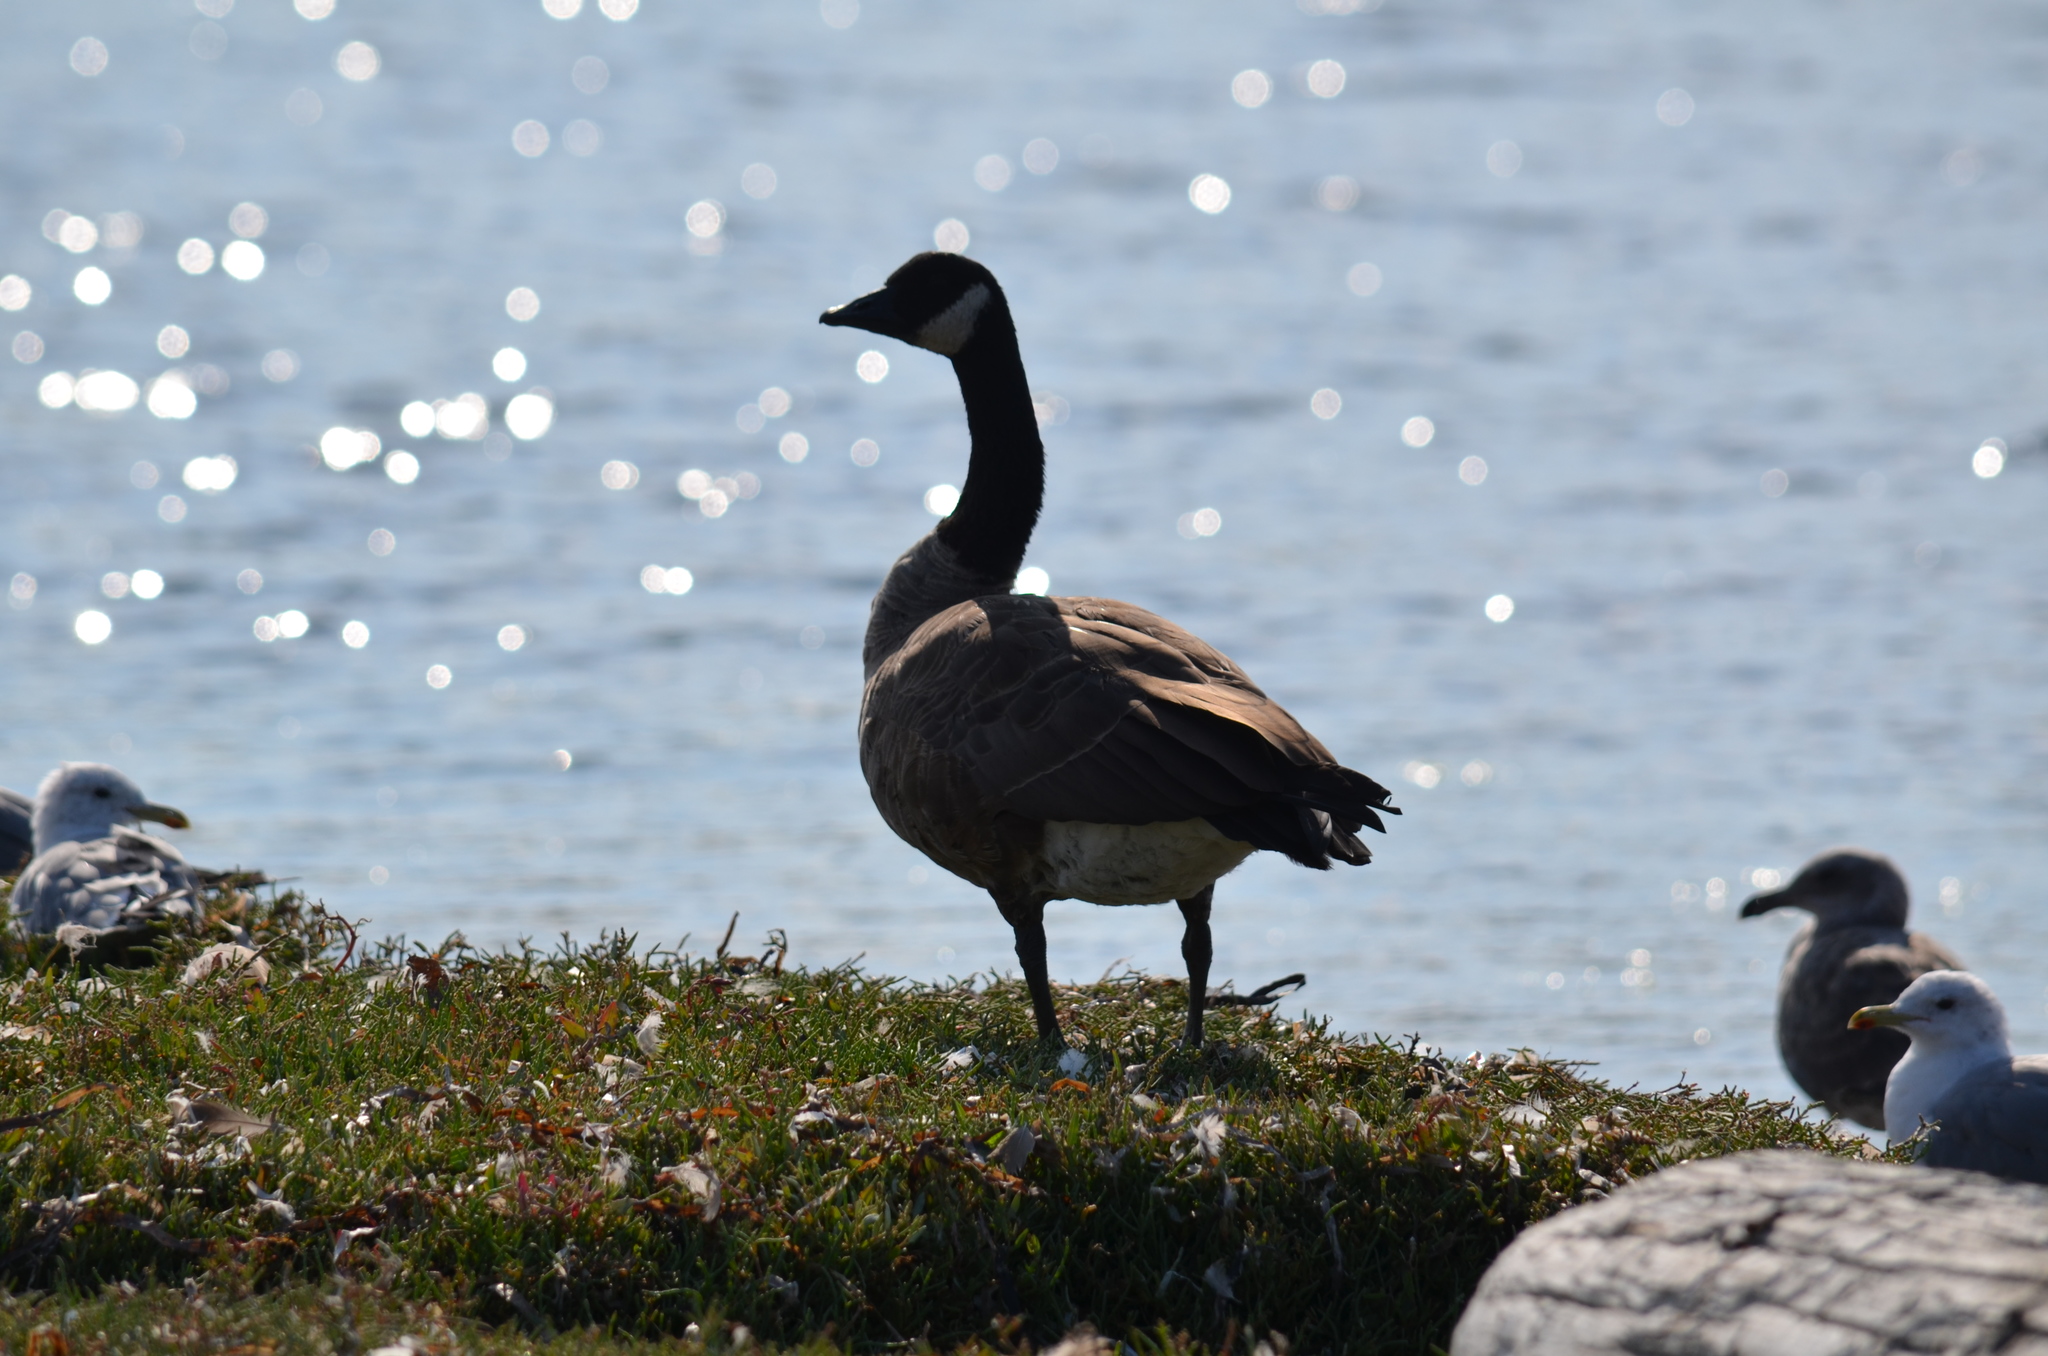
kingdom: Animalia
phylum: Chordata
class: Aves
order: Anseriformes
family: Anatidae
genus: Branta
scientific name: Branta canadensis
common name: Canada goose
